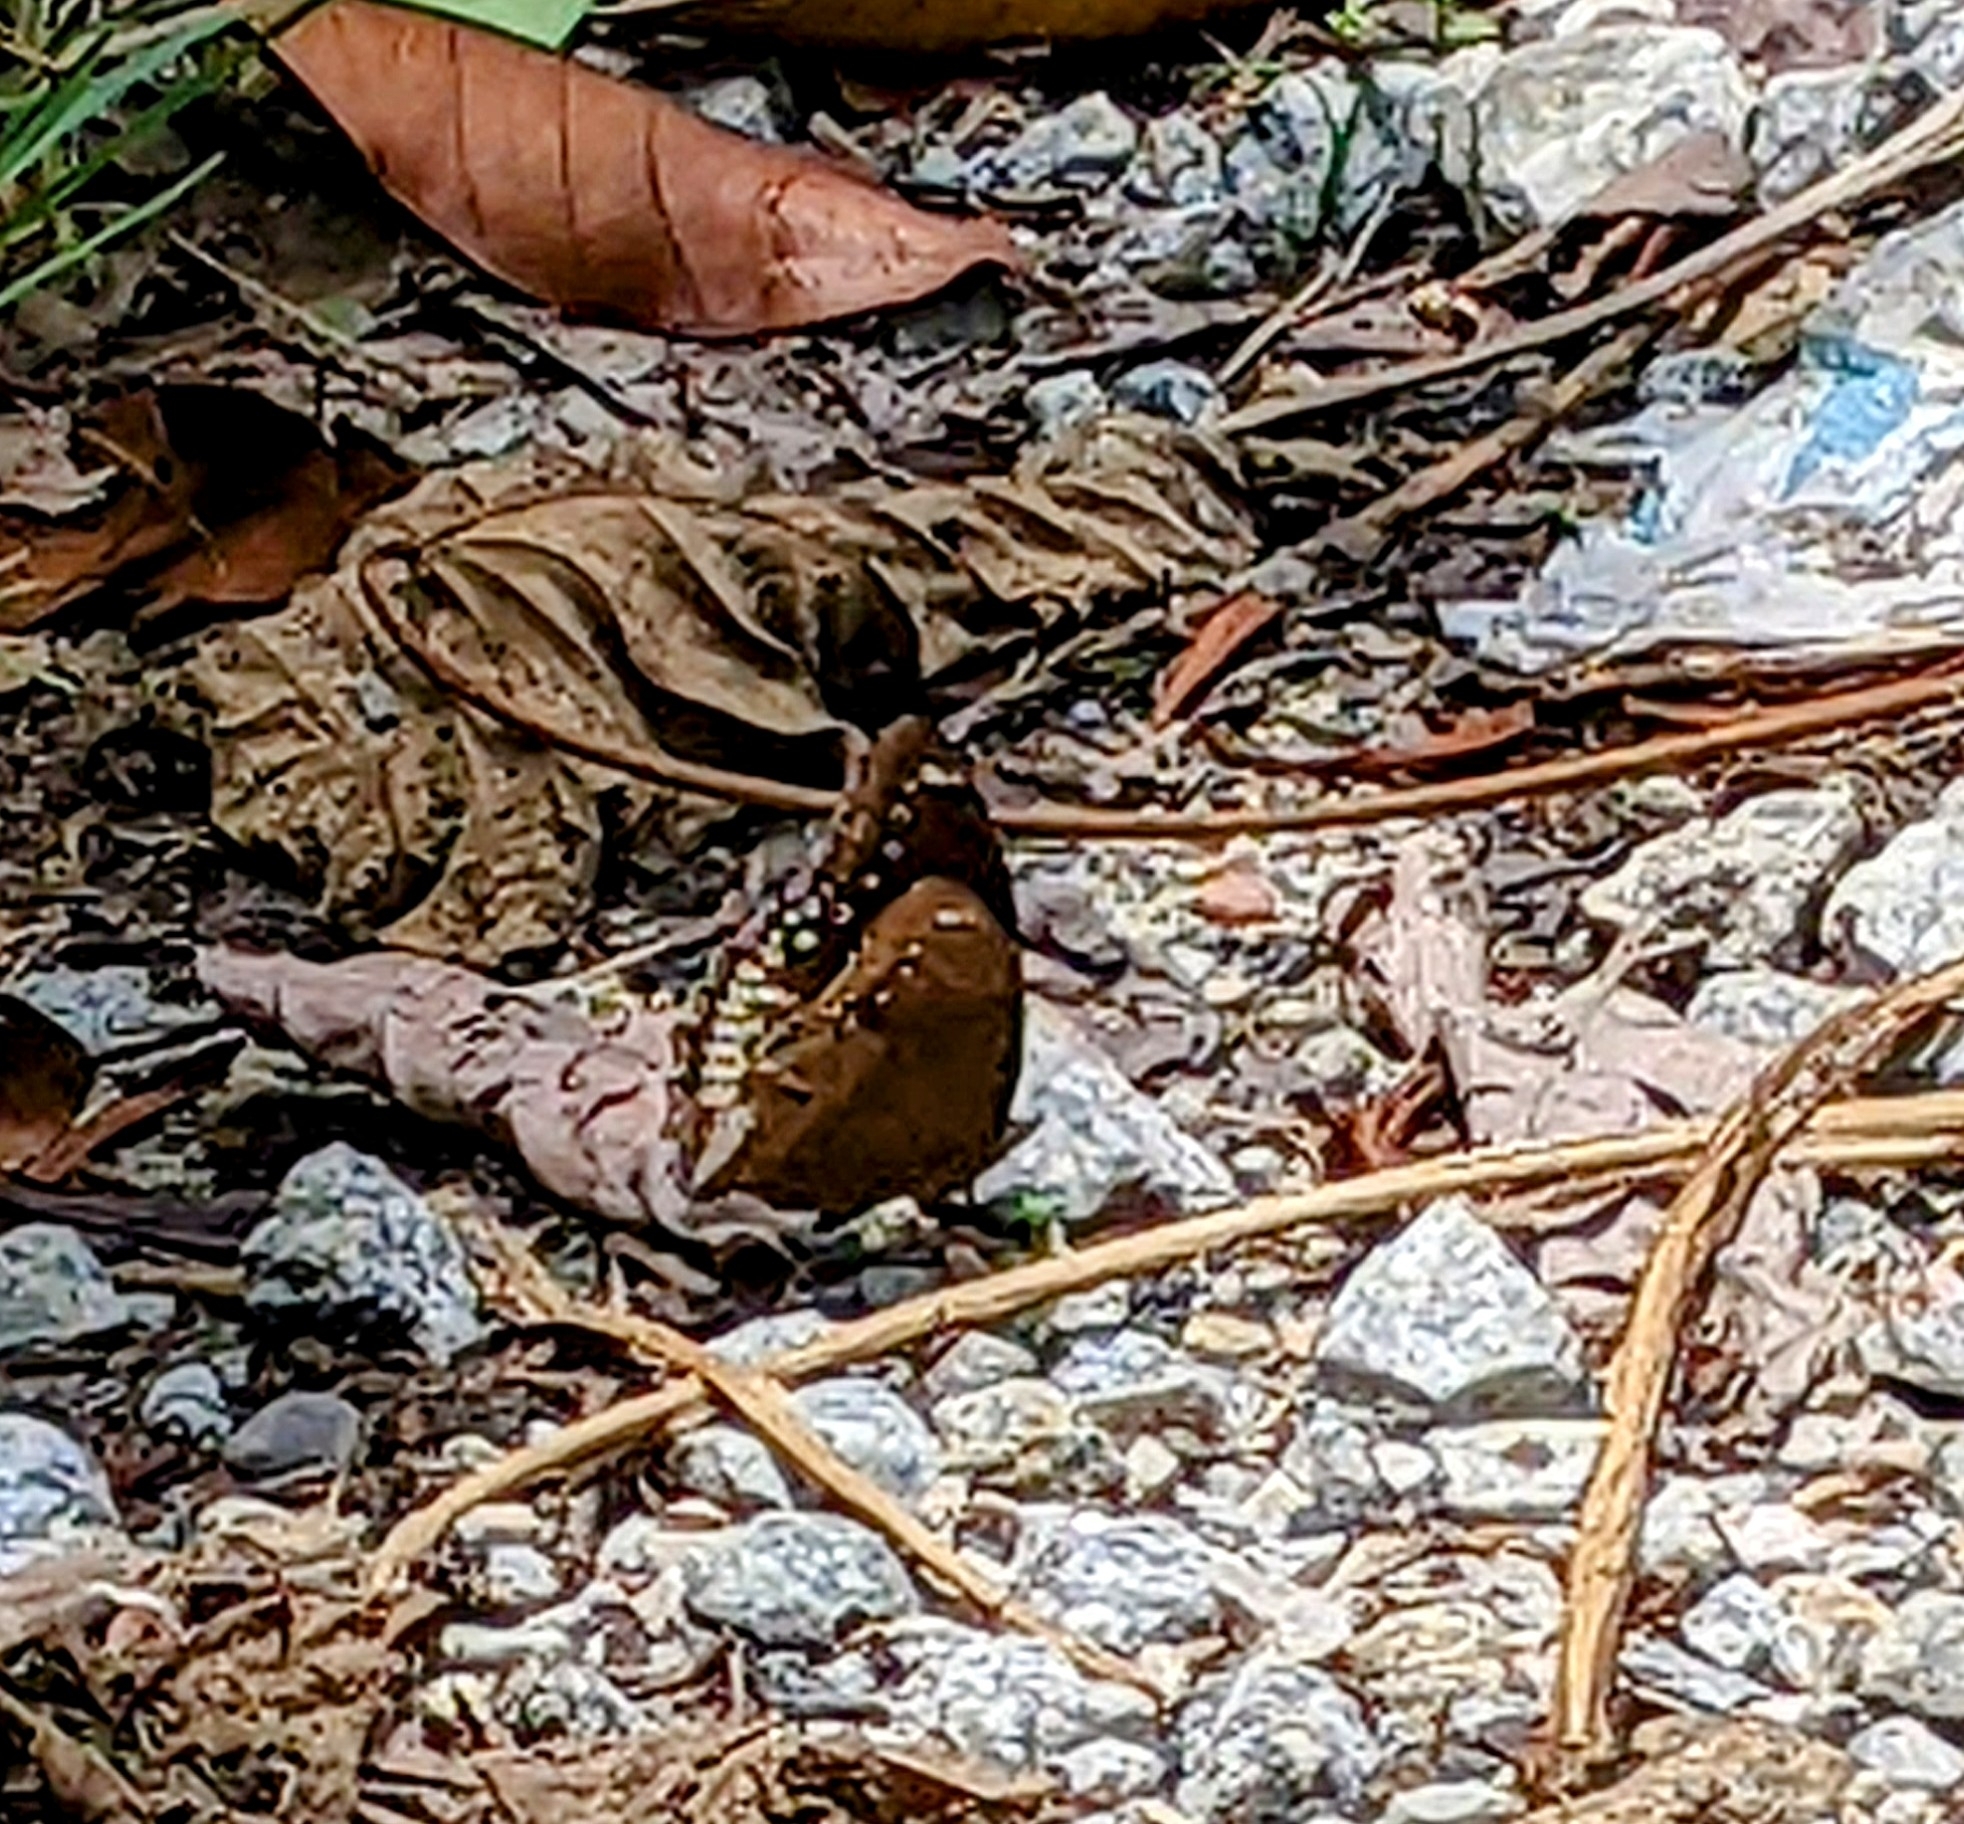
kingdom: Animalia
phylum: Arthropoda
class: Insecta
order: Lepidoptera
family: Nymphalidae
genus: Hypolimnas
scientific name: Hypolimnas bolina
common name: Great eggfly
